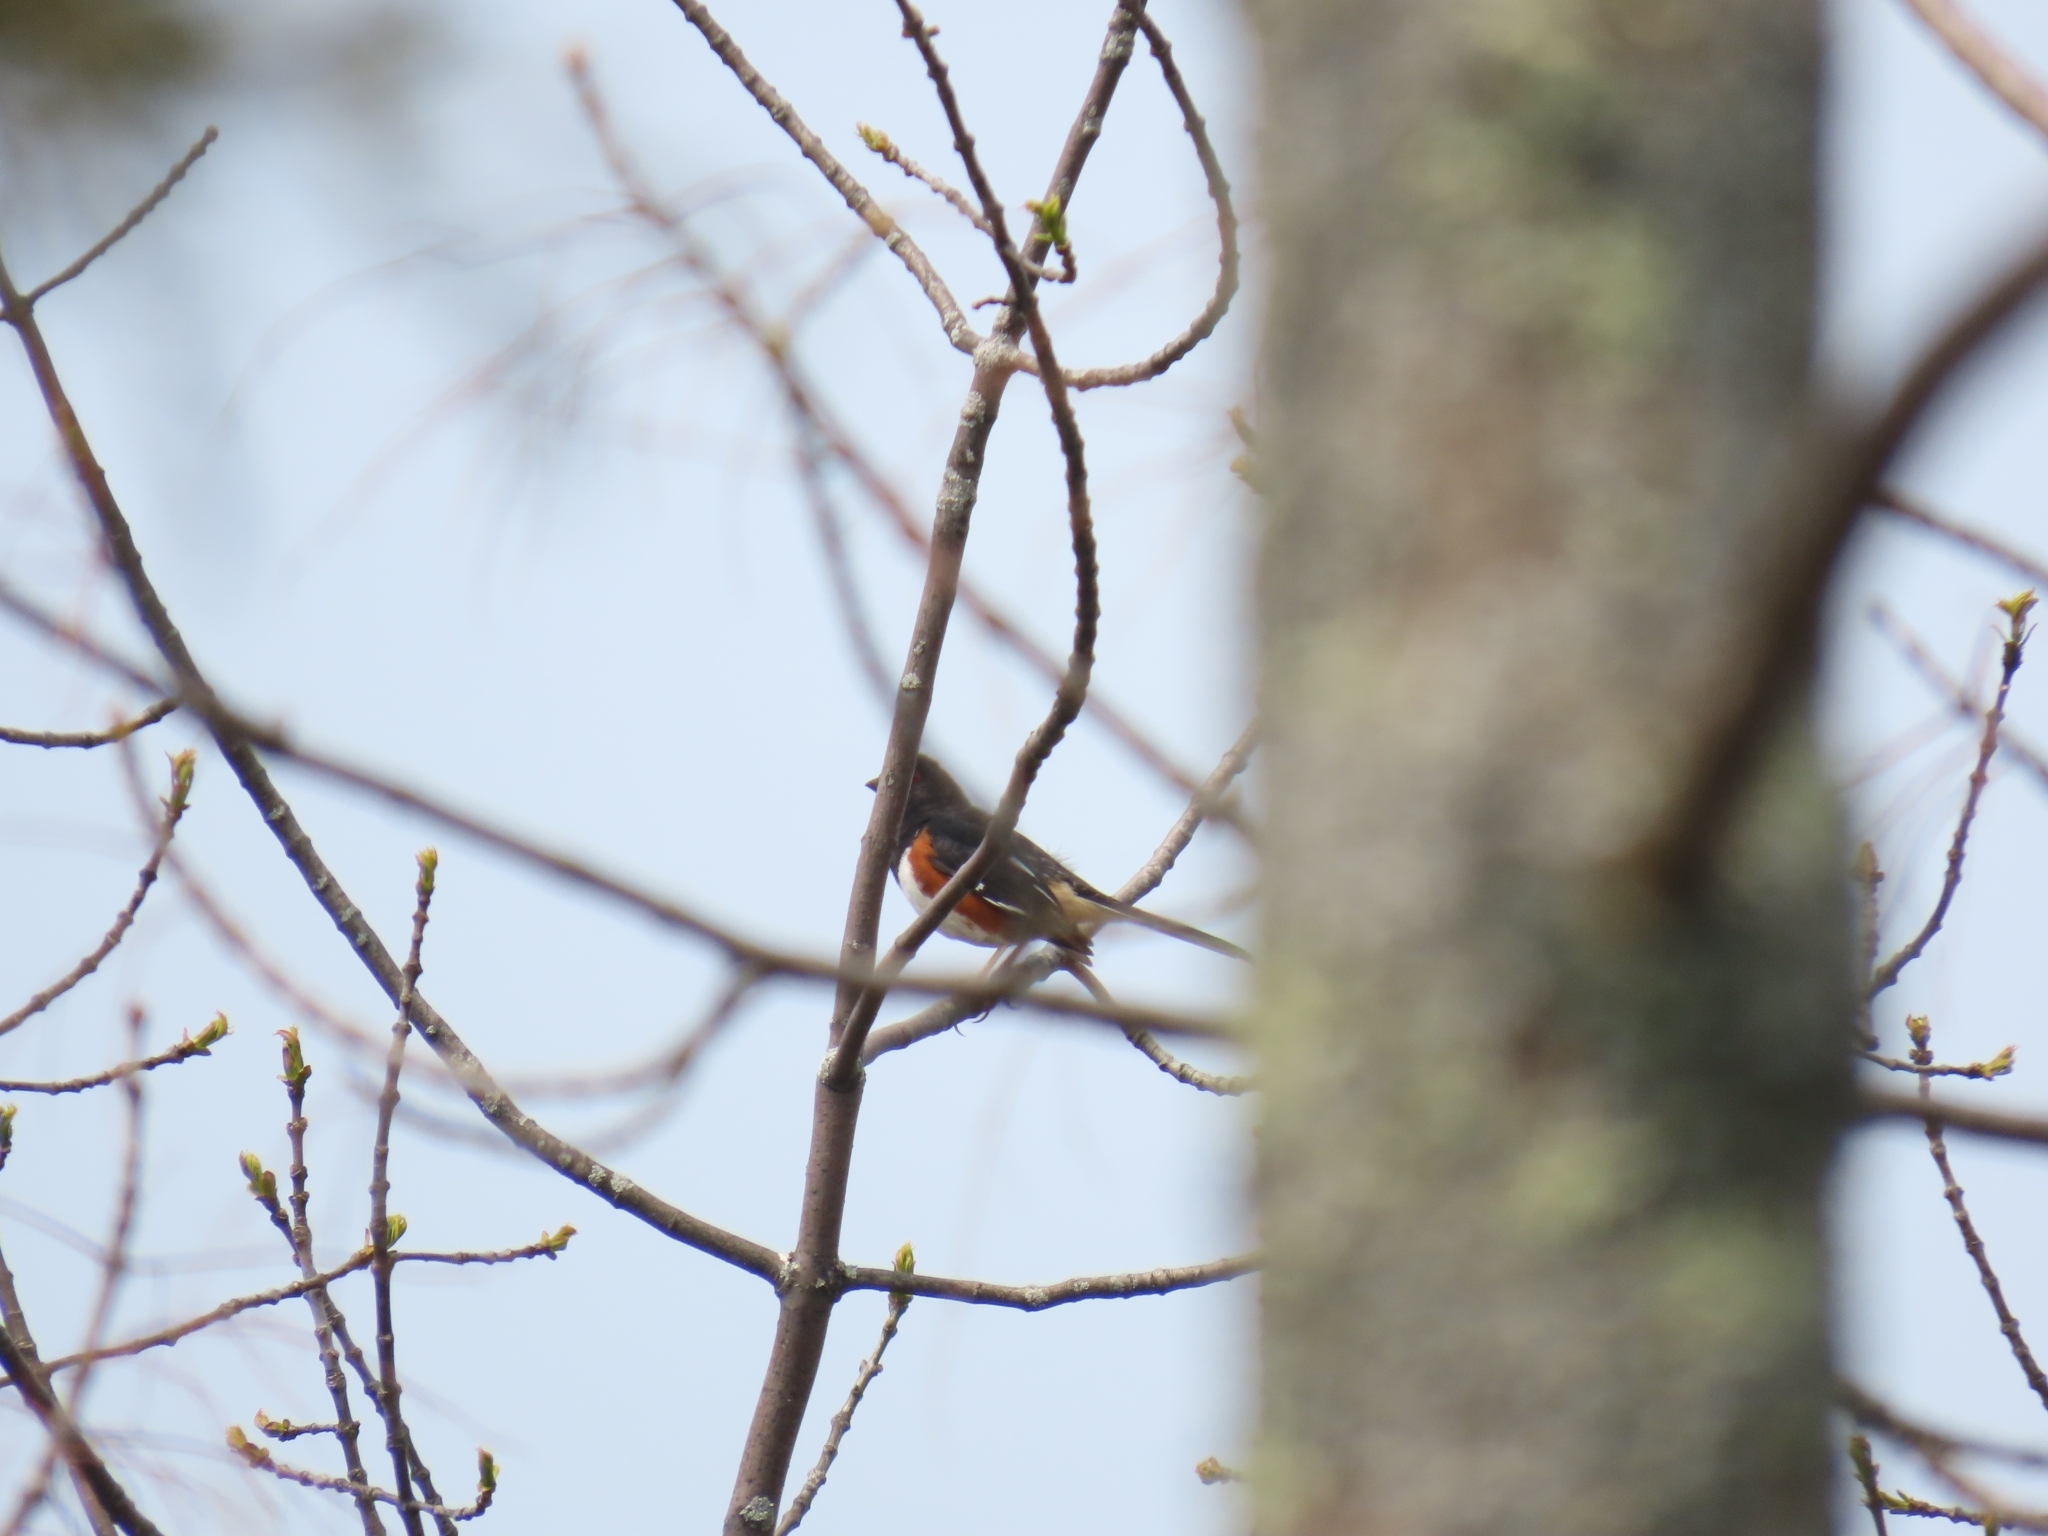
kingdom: Animalia
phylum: Chordata
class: Aves
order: Passeriformes
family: Passerellidae
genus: Pipilo
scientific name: Pipilo erythrophthalmus
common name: Eastern towhee
